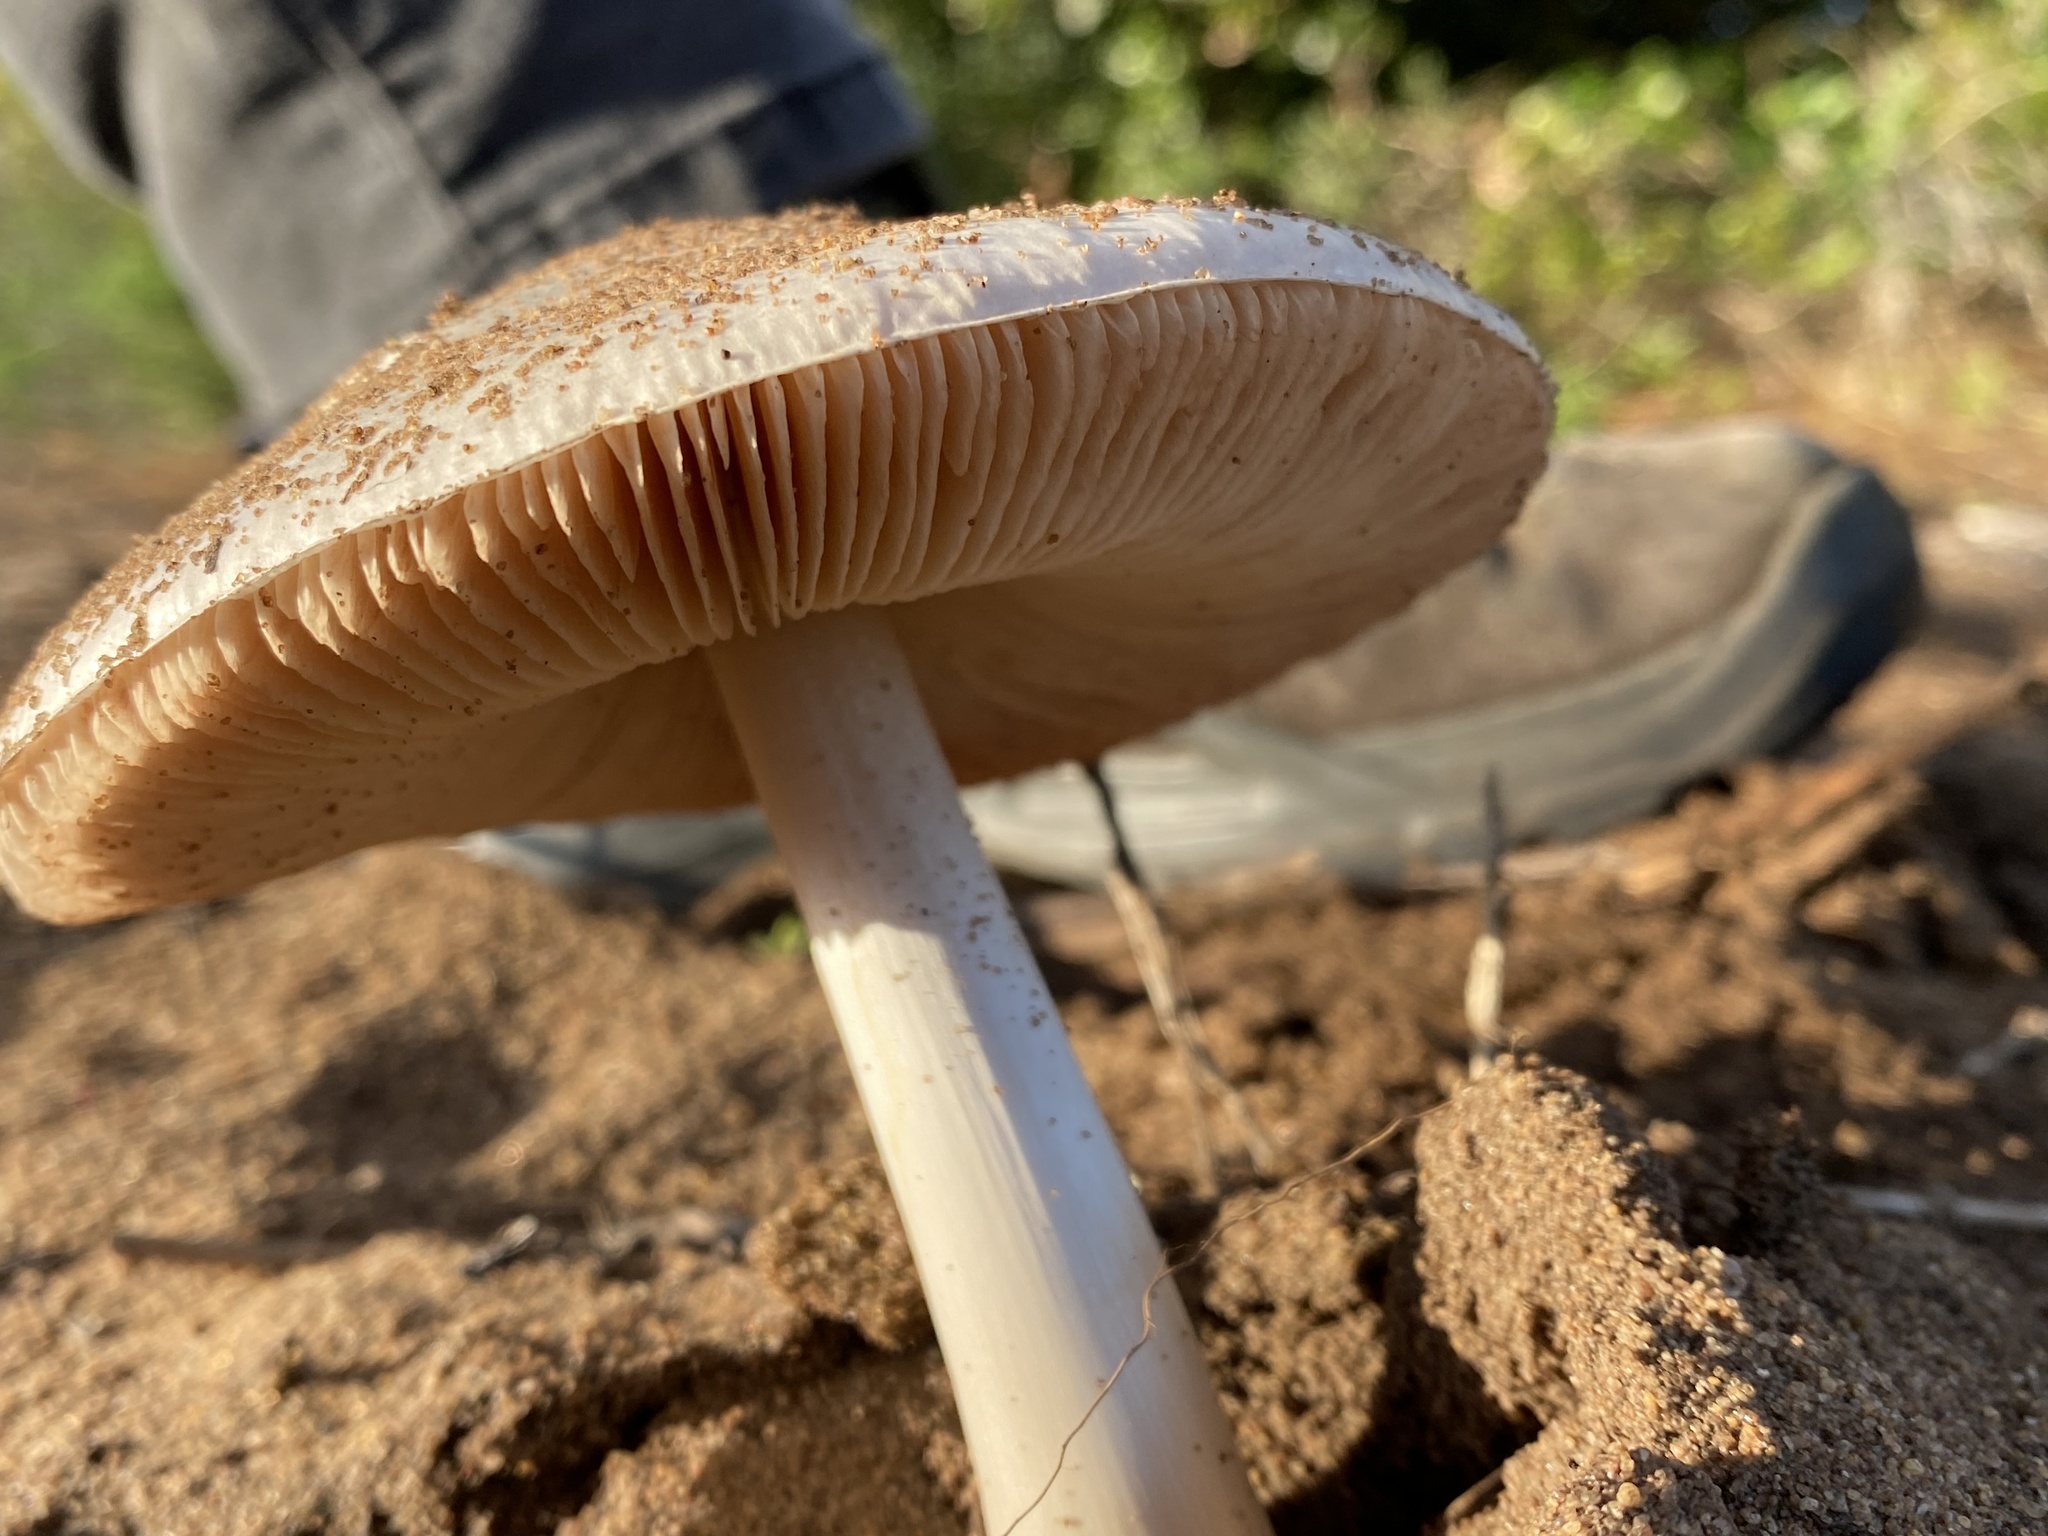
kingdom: Fungi
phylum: Basidiomycota
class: Agaricomycetes
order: Agaricales
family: Pluteaceae
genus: Volvopluteus
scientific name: Volvopluteus gloiocephalus
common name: Stubble rosegill
